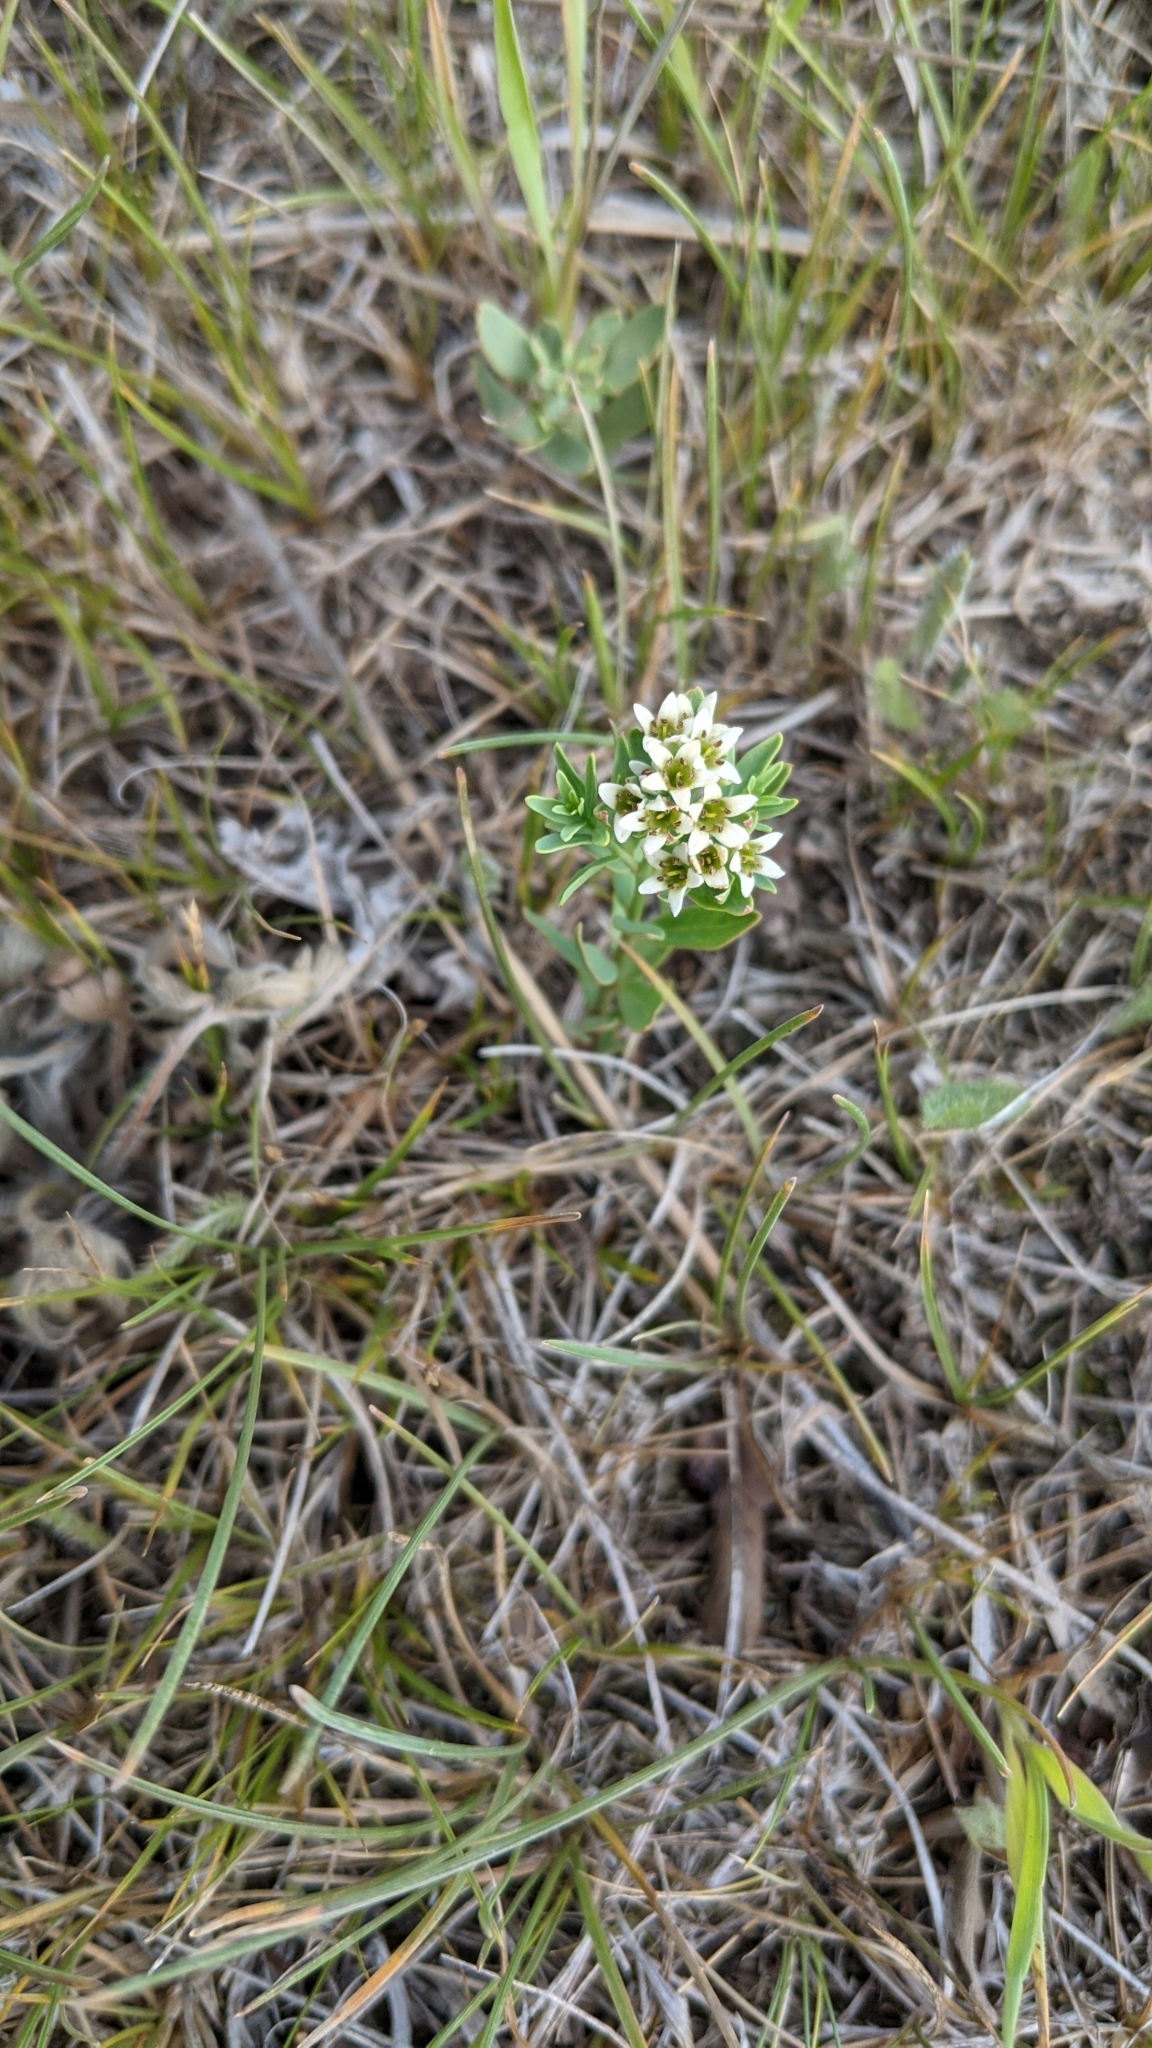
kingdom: Plantae
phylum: Tracheophyta
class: Magnoliopsida
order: Santalales
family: Comandraceae
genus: Comandra
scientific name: Comandra umbellata
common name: Bastard toadflax
